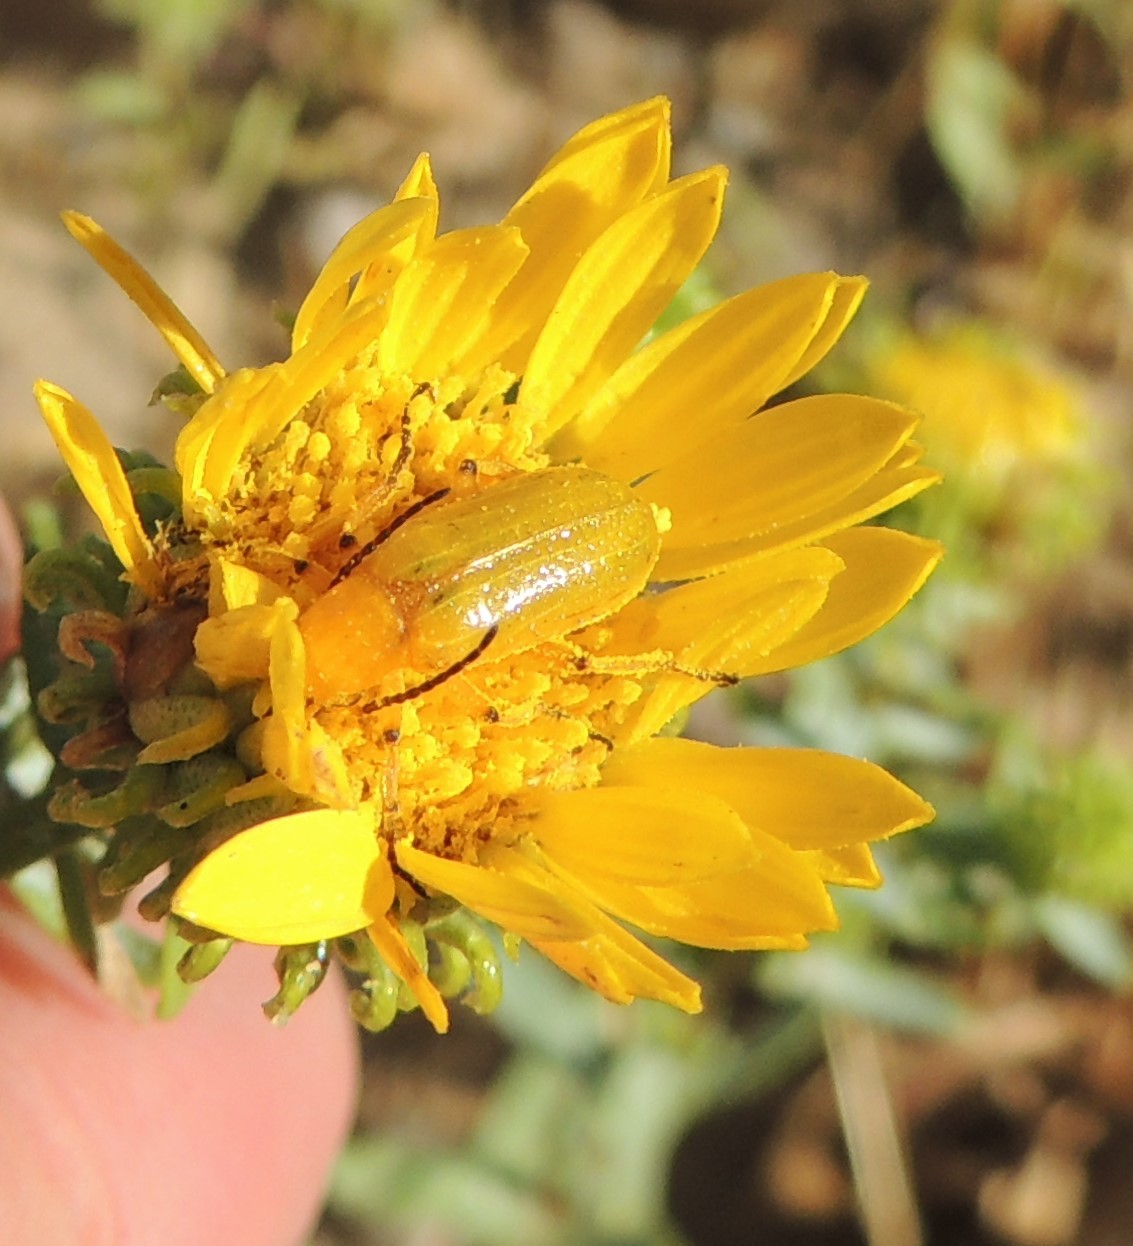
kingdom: Animalia
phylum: Arthropoda
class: Insecta
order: Coleoptera
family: Meloidae
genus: Zonitis
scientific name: Zonitis sayi
